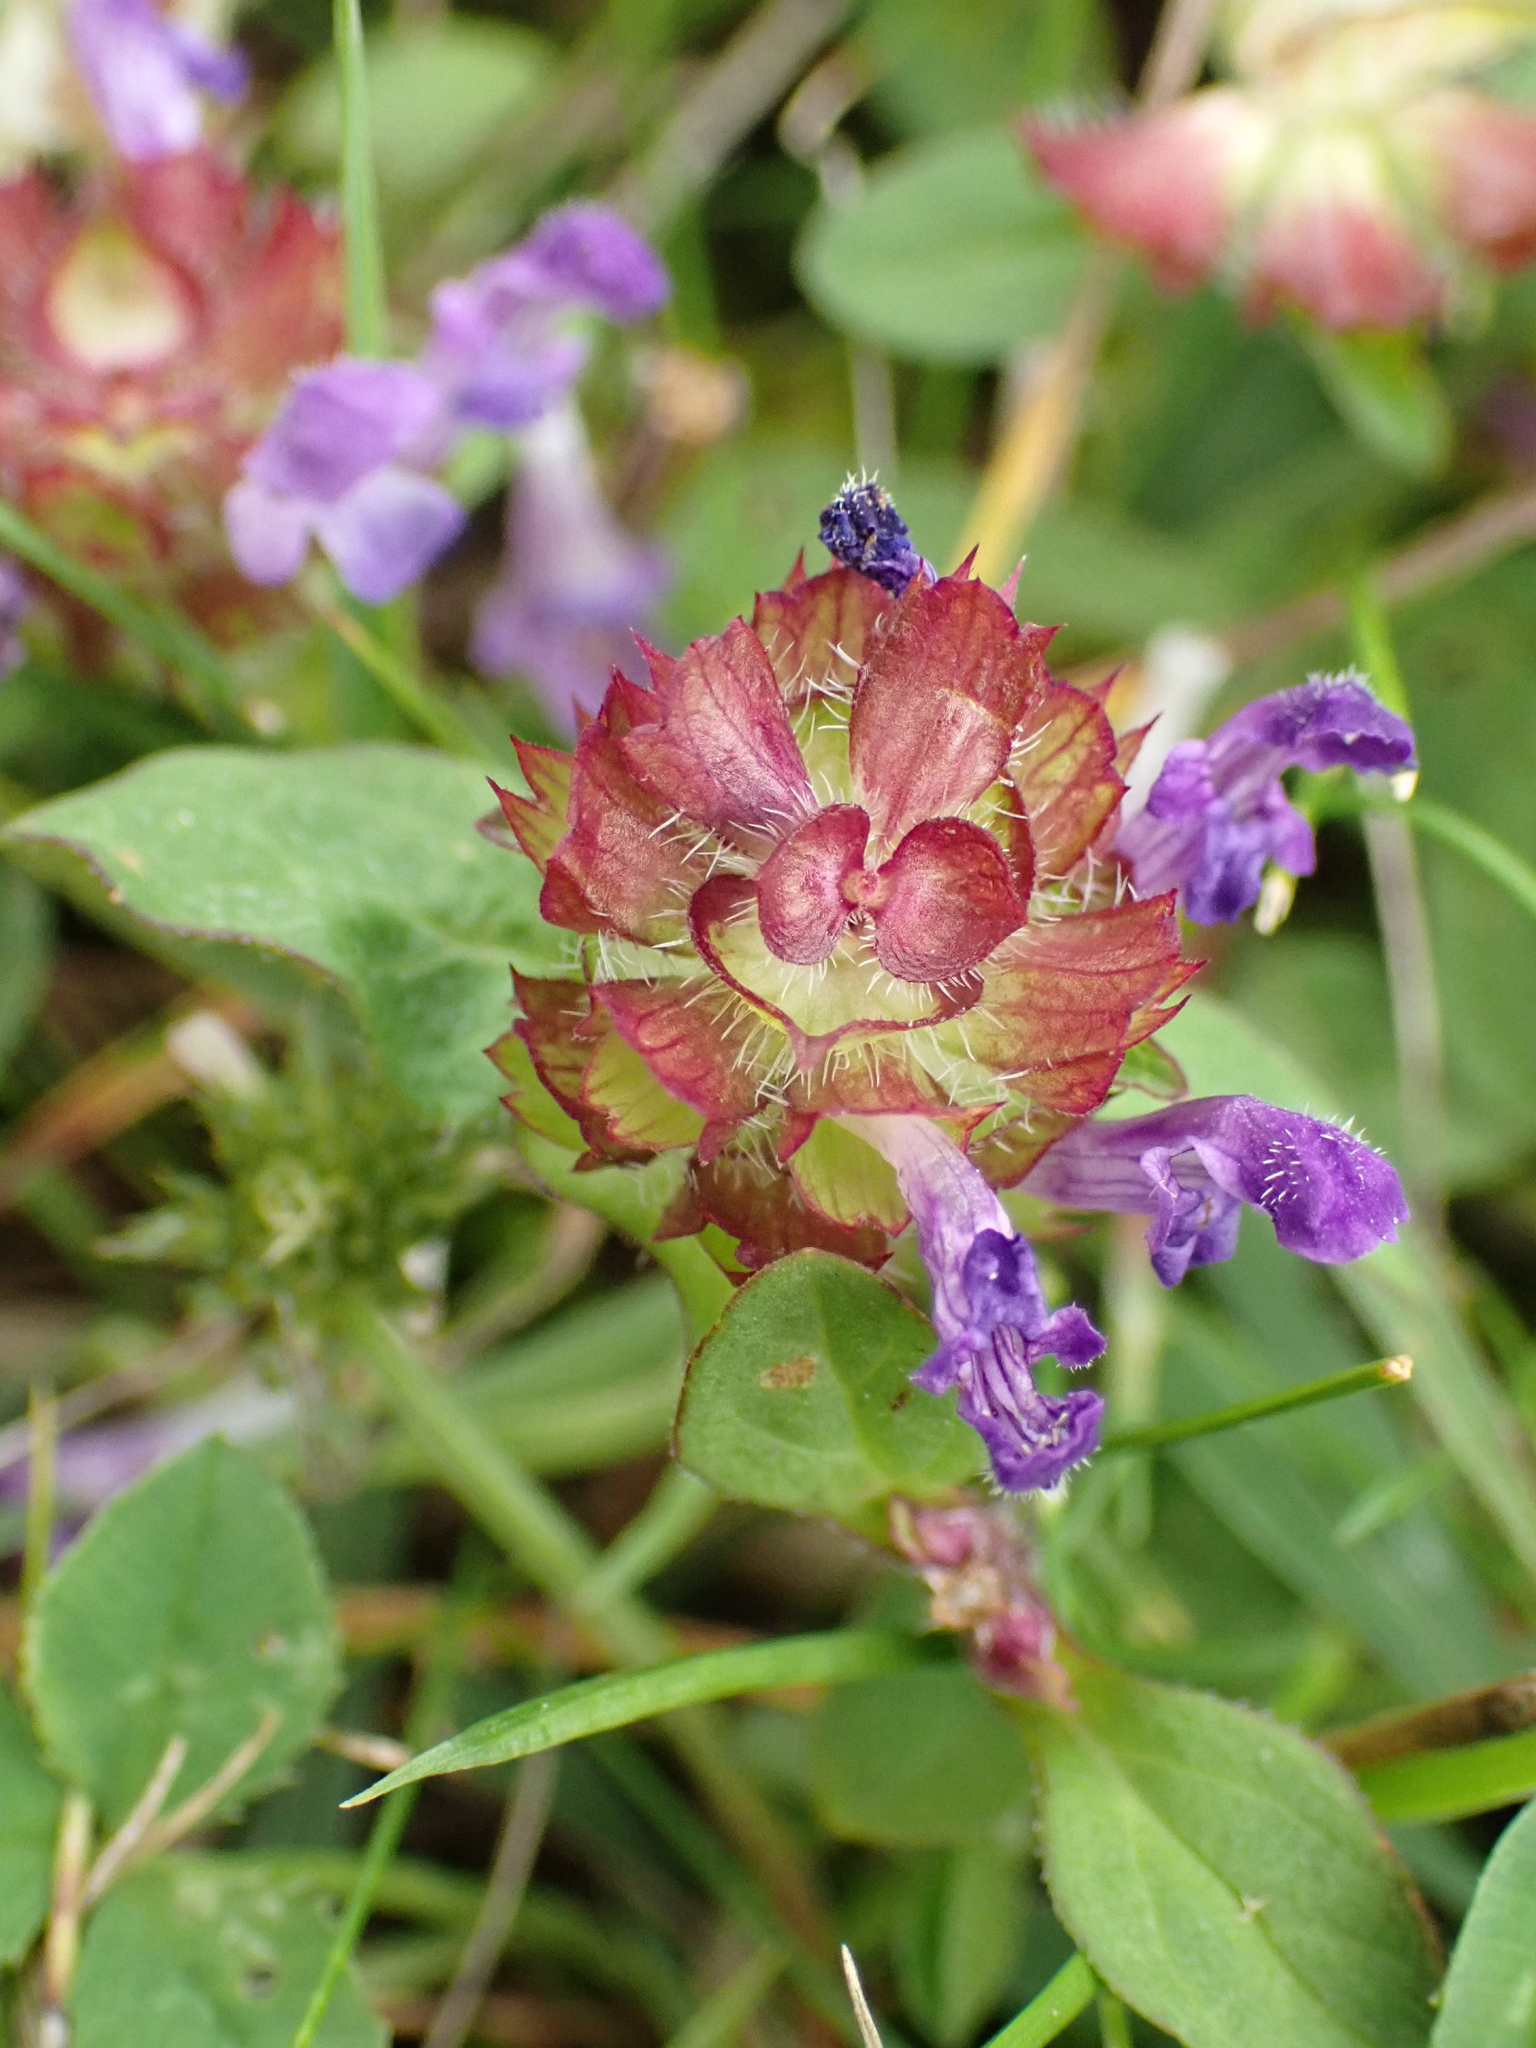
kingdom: Plantae
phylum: Tracheophyta
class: Magnoliopsida
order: Lamiales
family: Lamiaceae
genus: Prunella
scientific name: Prunella vulgaris
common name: Heal-all
